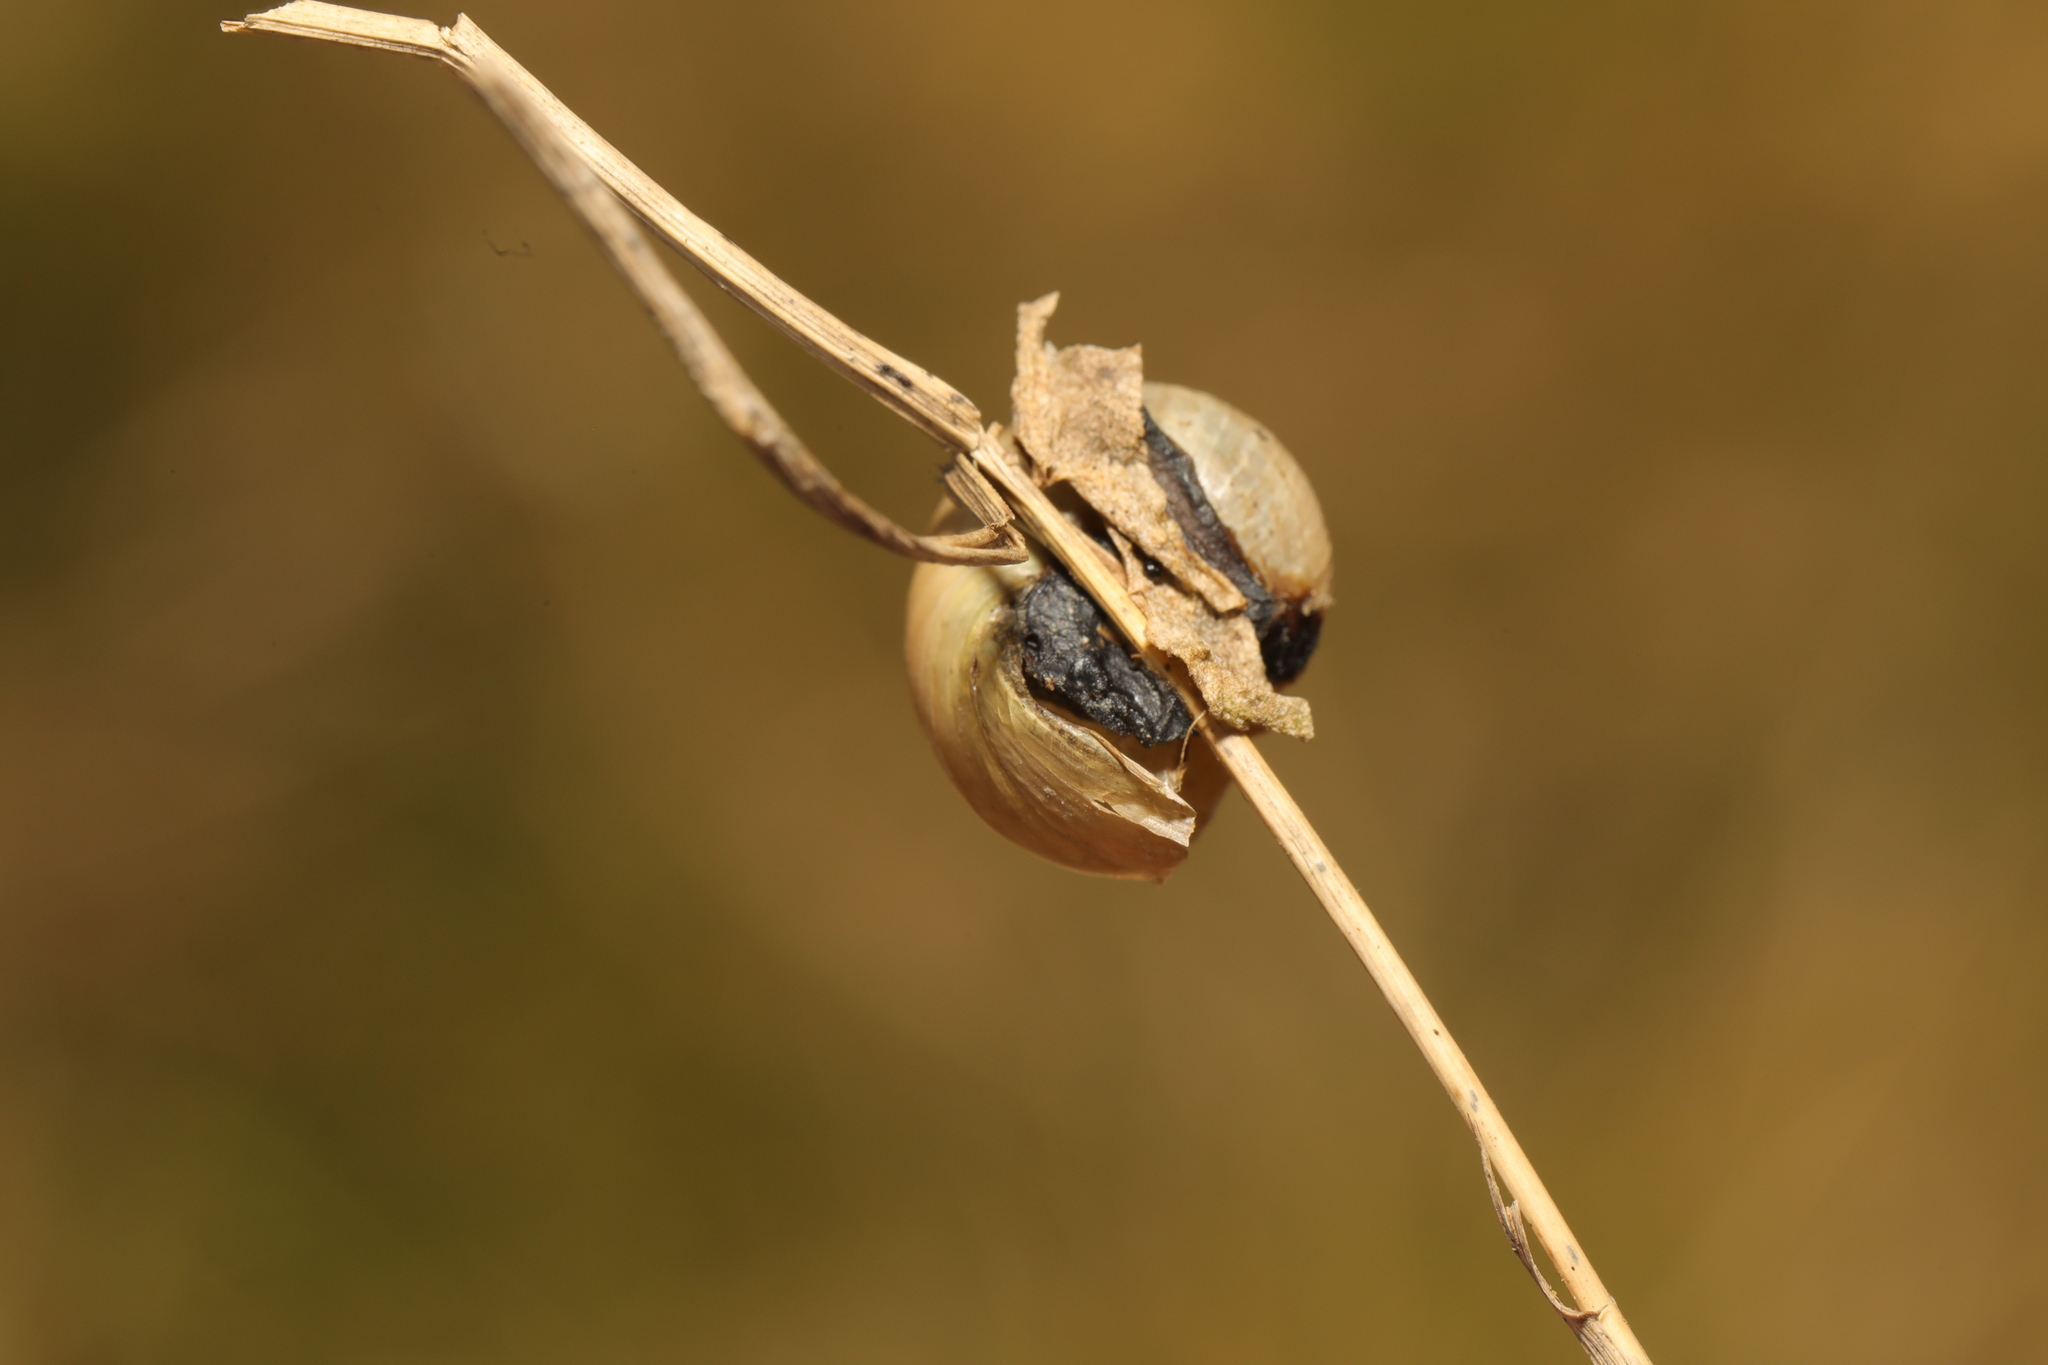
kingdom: Animalia
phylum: Mollusca
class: Gastropoda
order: Stylommatophora
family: Helicidae
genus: Cornu
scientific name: Cornu aspersum
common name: Brown garden snail
